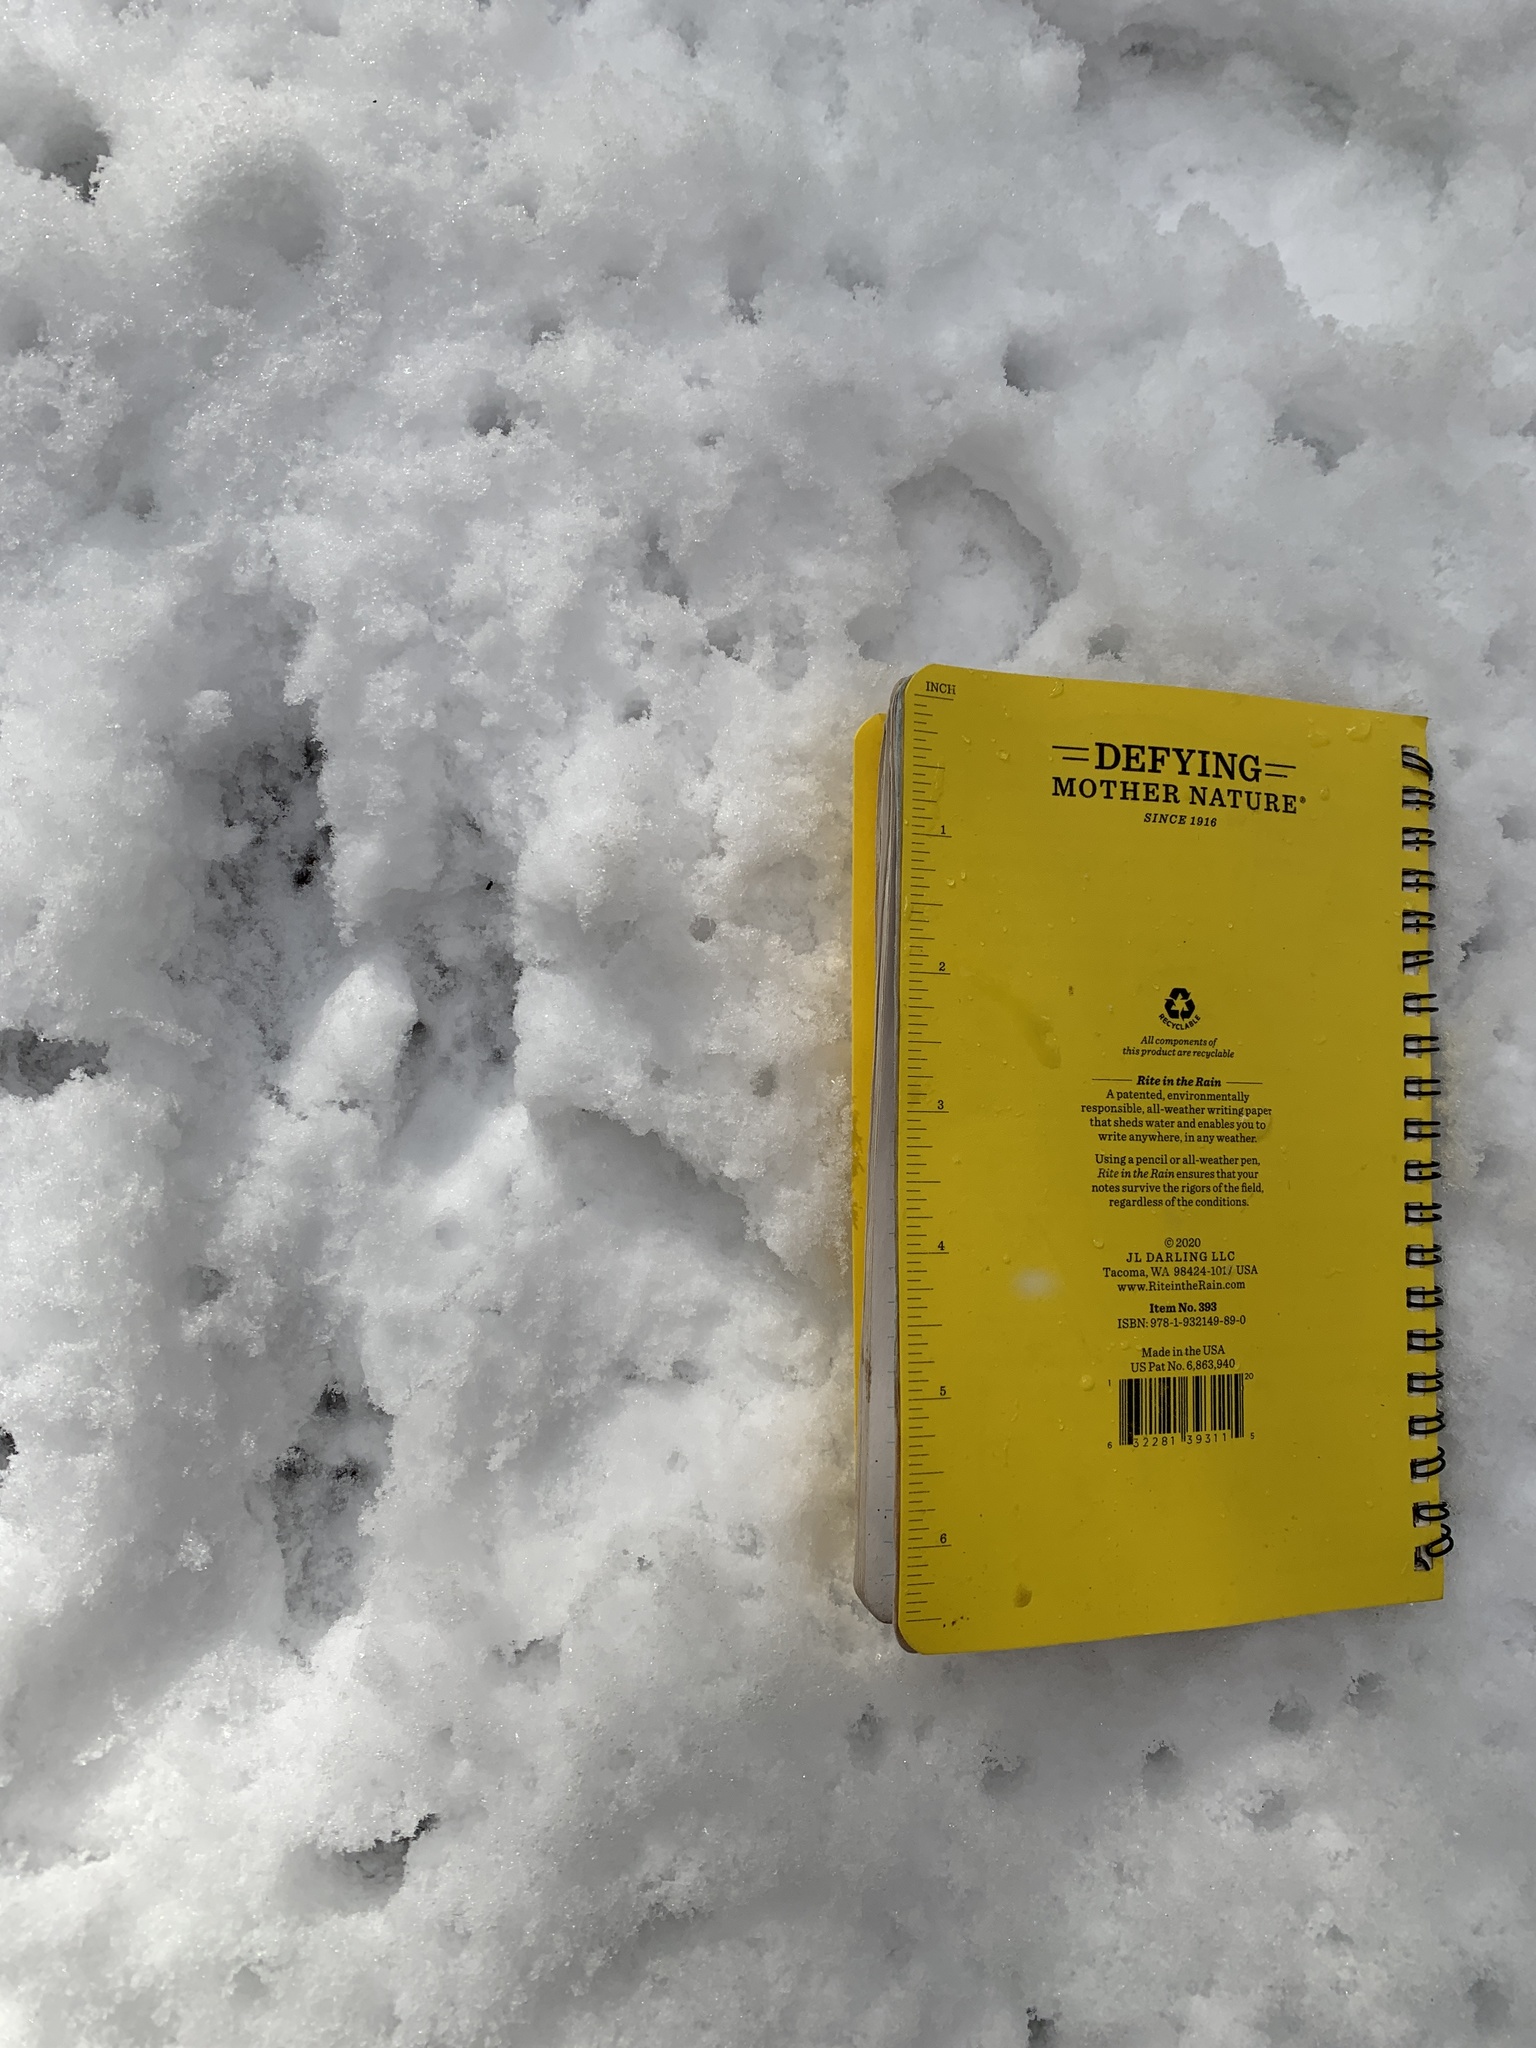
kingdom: Animalia
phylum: Chordata
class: Mammalia
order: Carnivora
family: Mustelidae
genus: Mustela
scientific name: Mustela
